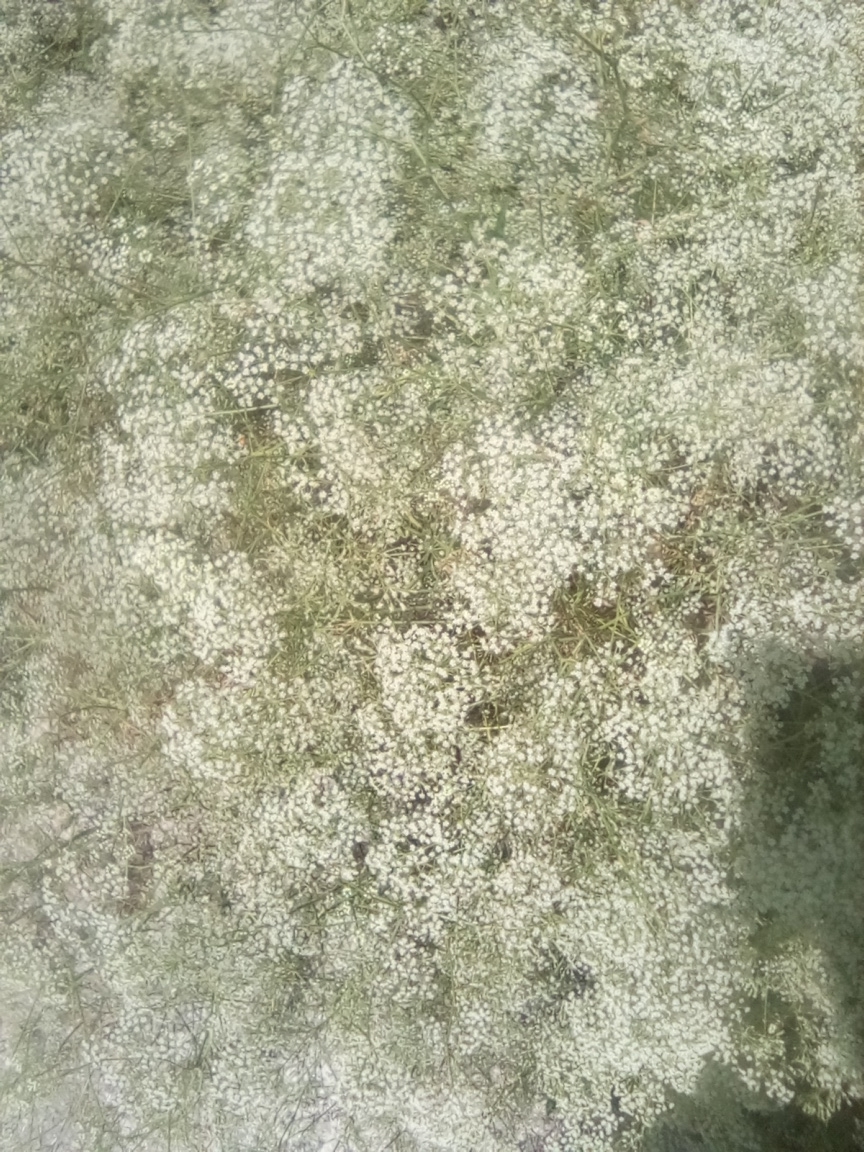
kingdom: Plantae
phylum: Tracheophyta
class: Magnoliopsida
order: Apiales
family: Apiaceae
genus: Falcaria
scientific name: Falcaria vulgaris
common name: Longleaf
